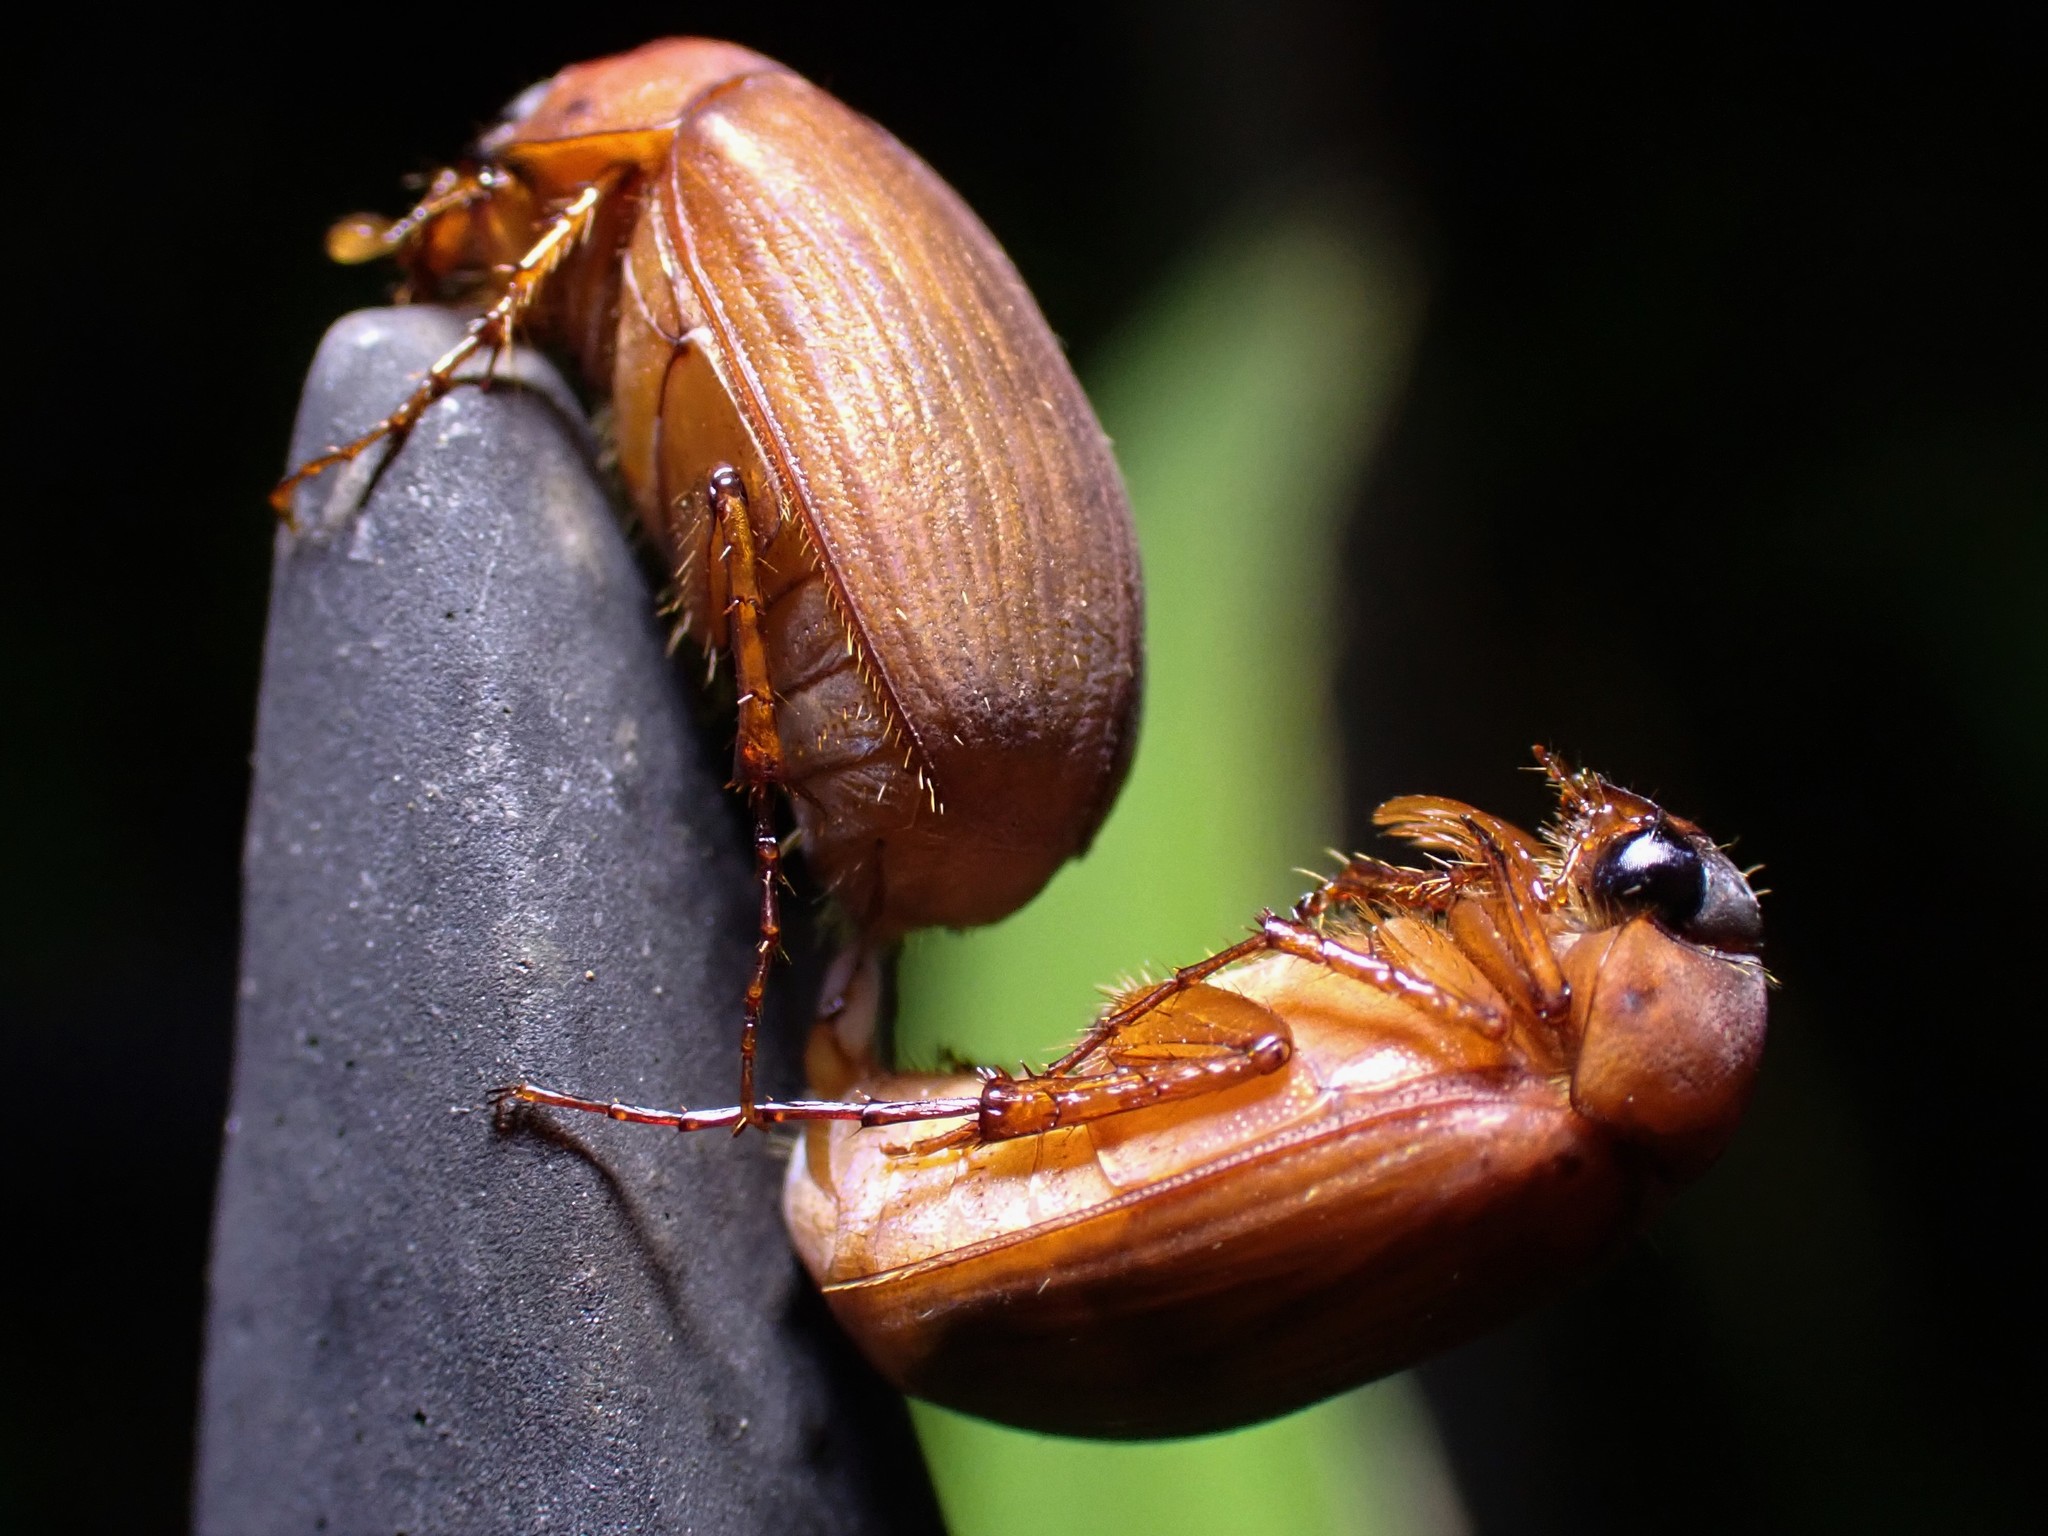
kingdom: Animalia
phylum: Arthropoda
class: Insecta
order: Coleoptera
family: Scarabaeidae
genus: Serica
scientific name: Serica brunnea
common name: Brown chafer
